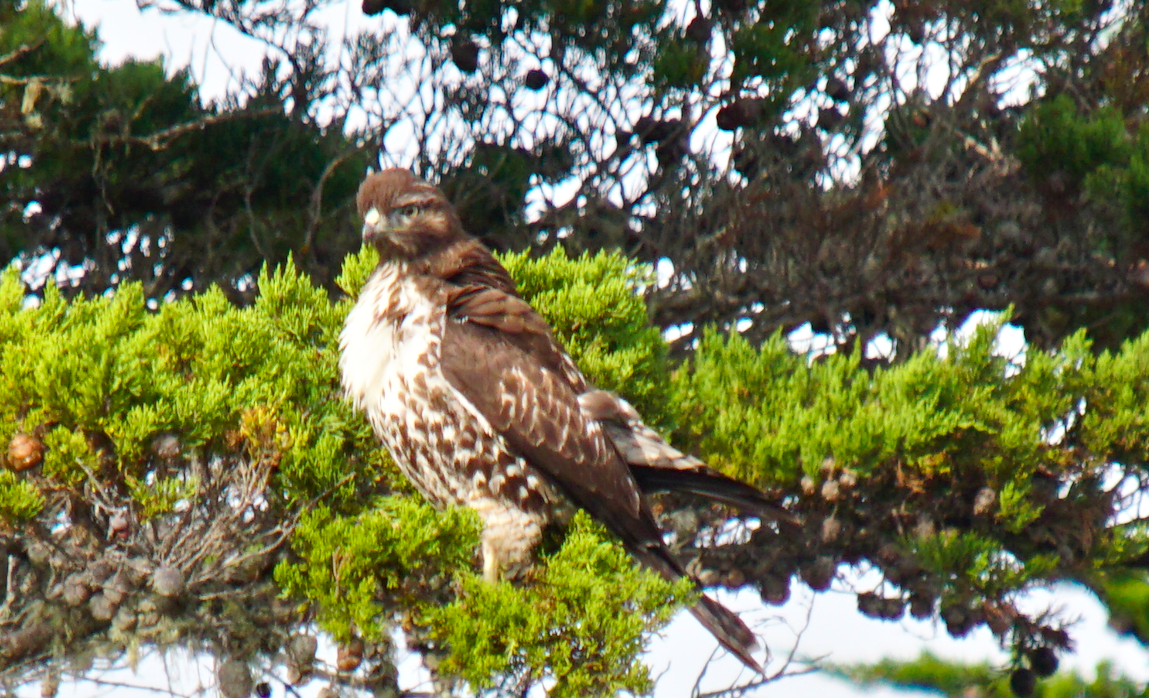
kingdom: Animalia
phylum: Chordata
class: Aves
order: Accipitriformes
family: Accipitridae
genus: Buteo
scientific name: Buteo jamaicensis
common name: Red-tailed hawk
